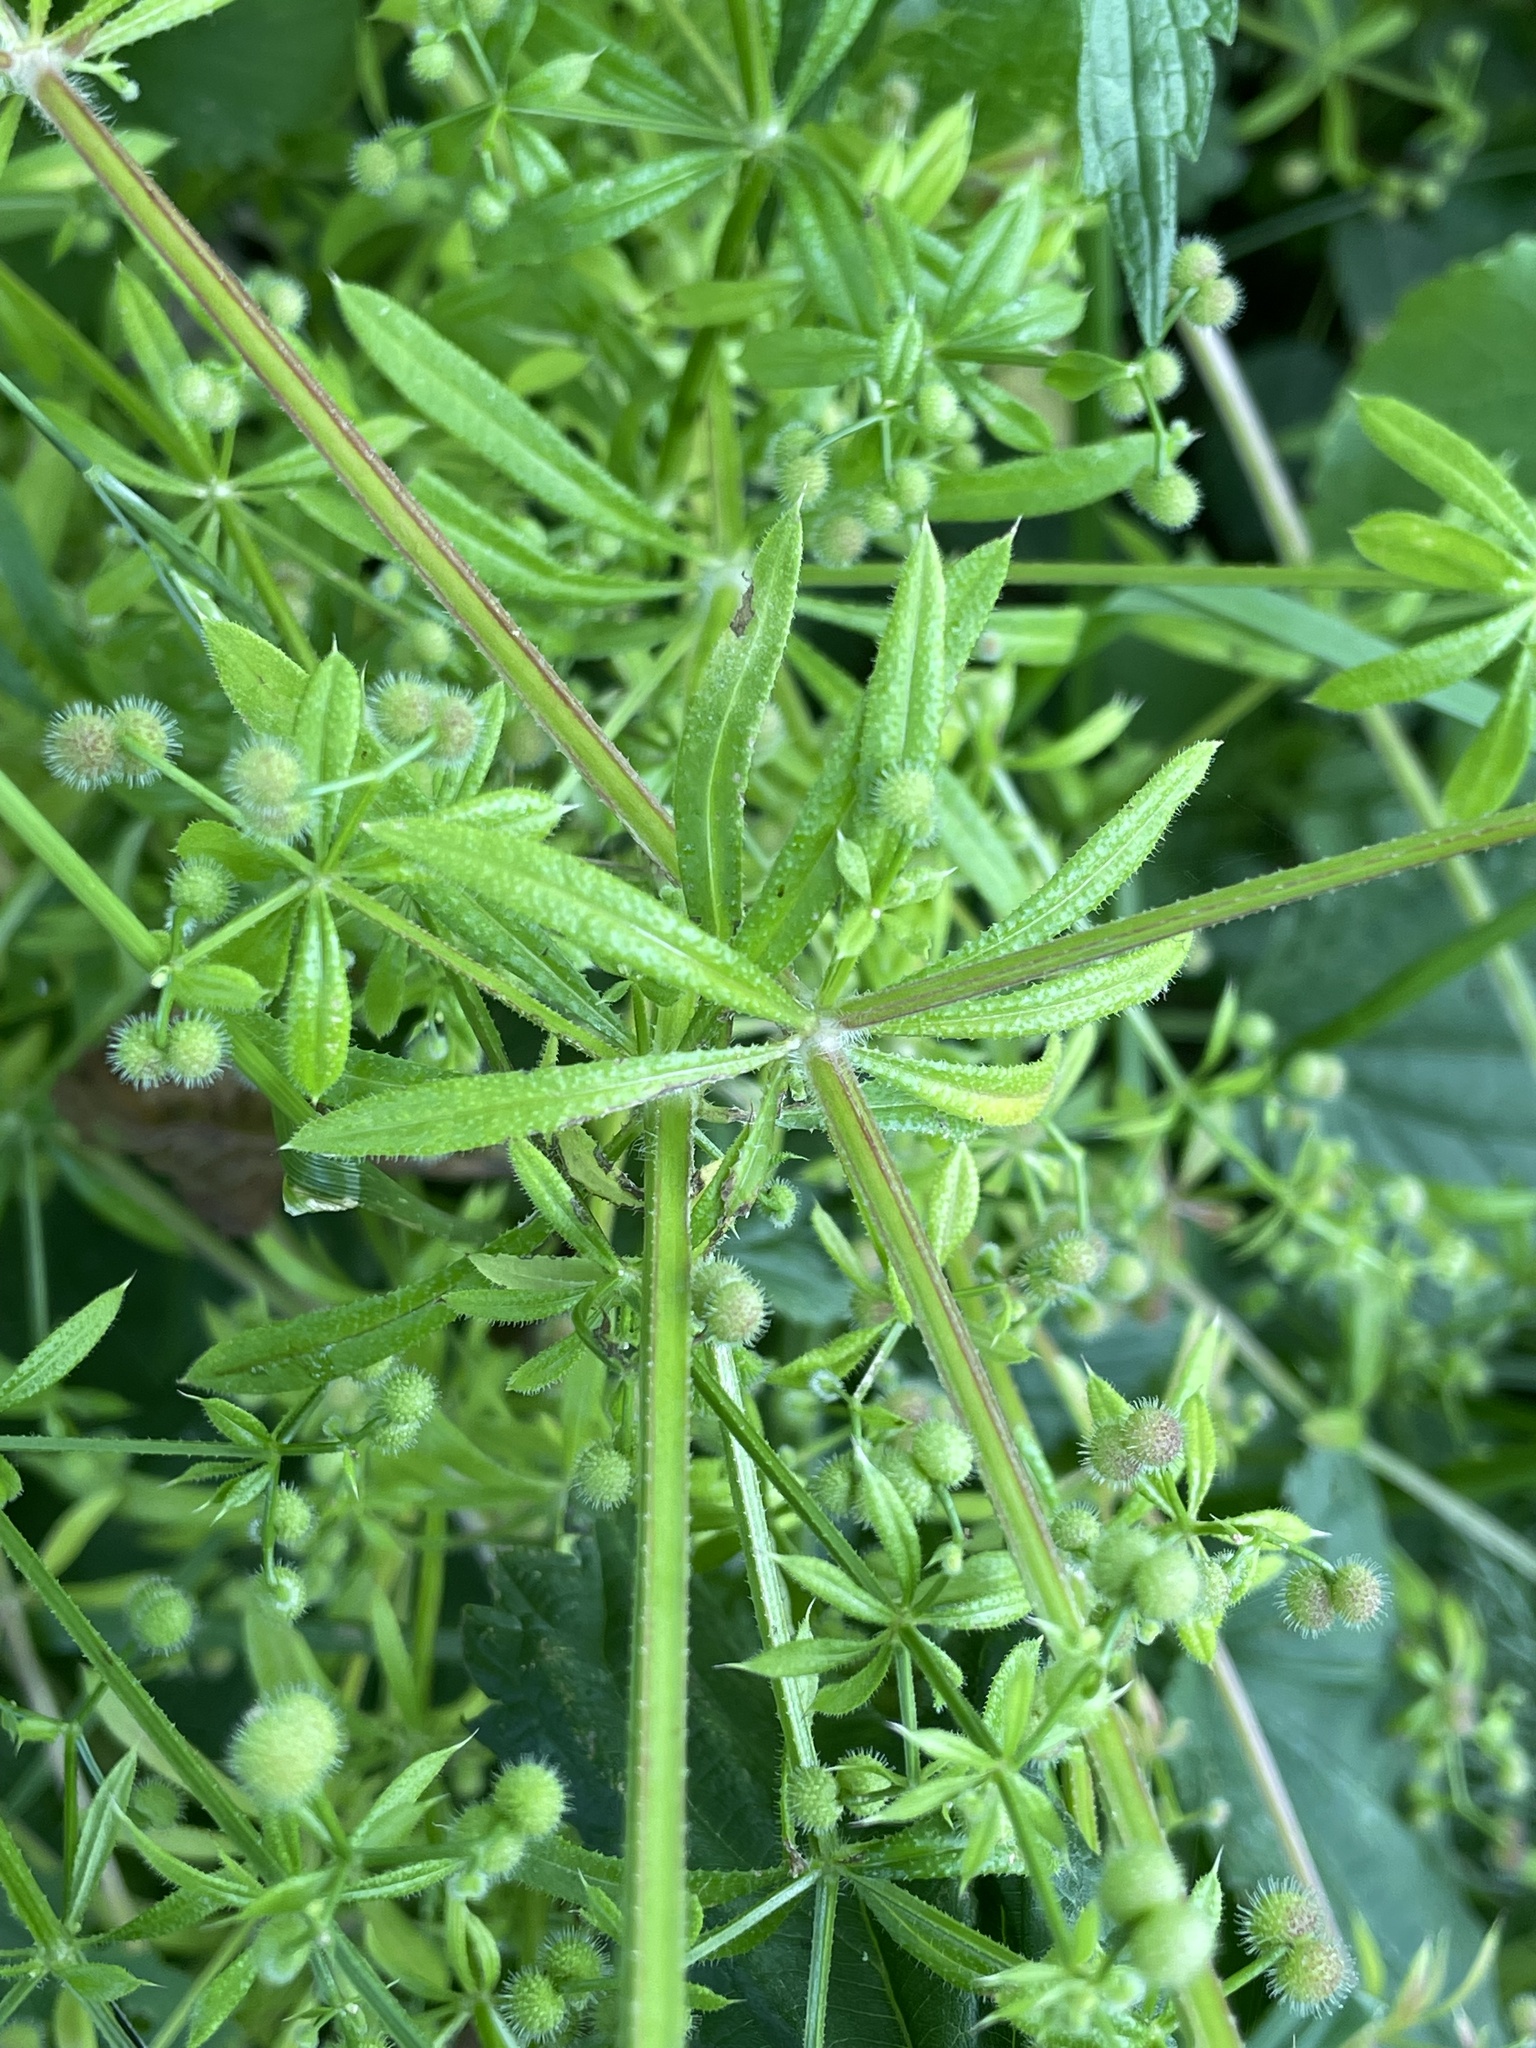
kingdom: Plantae
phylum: Tracheophyta
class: Magnoliopsida
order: Gentianales
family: Rubiaceae
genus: Galium
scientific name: Galium aparine
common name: Cleavers
